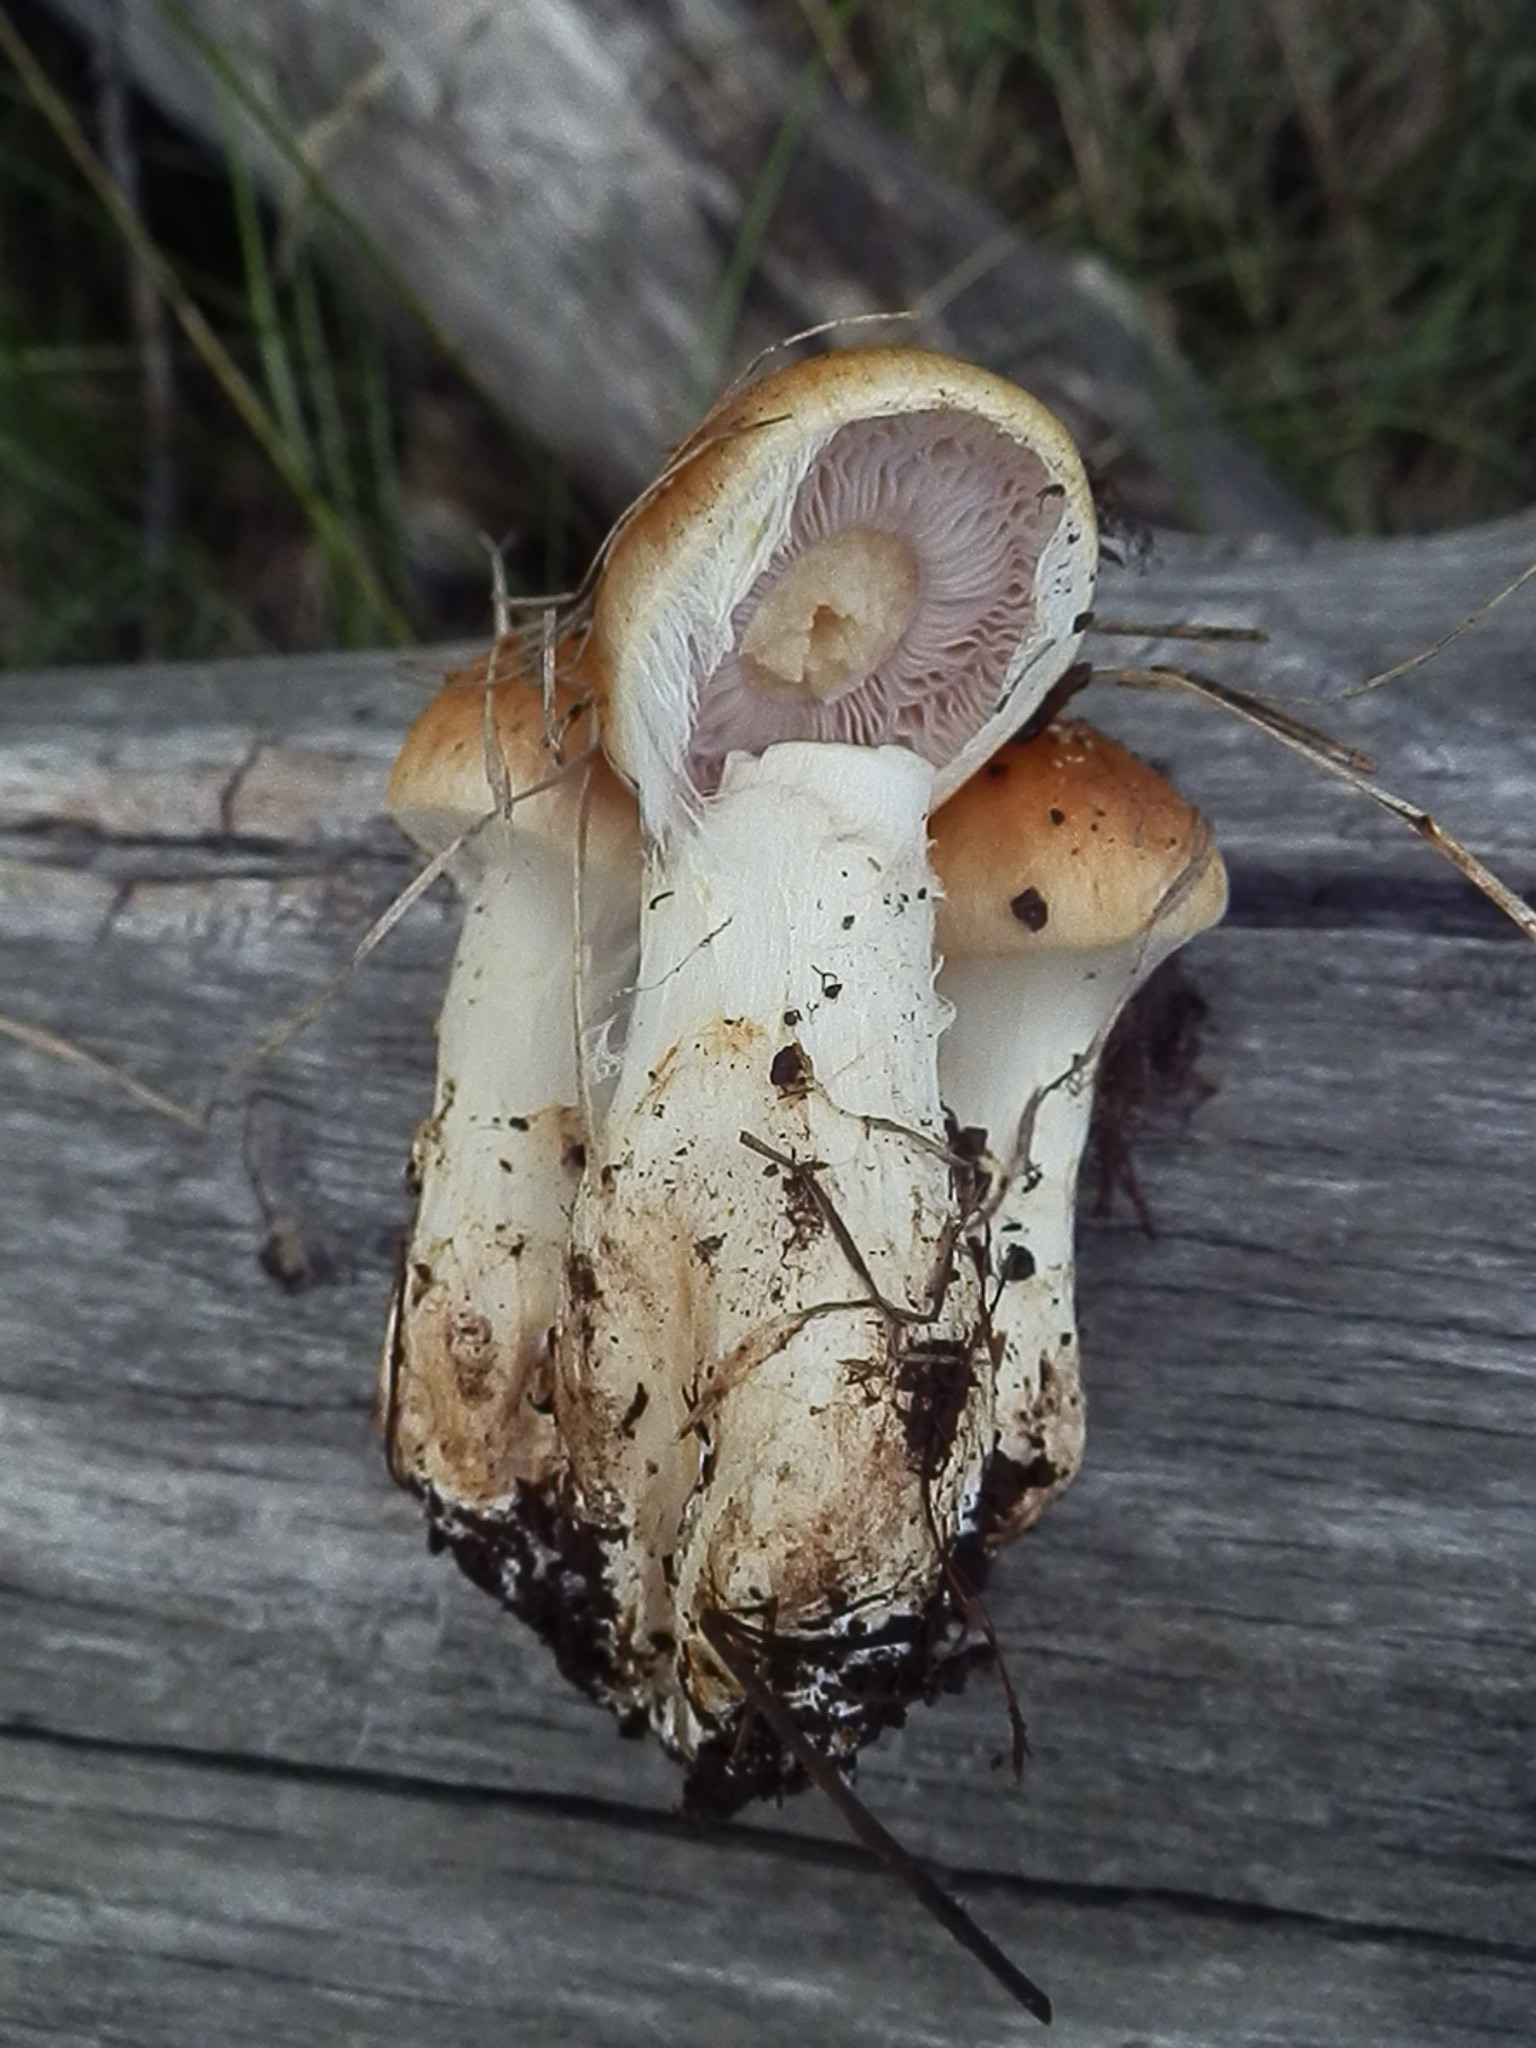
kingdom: Fungi
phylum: Basidiomycota
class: Agaricomycetes
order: Agaricales
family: Cortinariaceae
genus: Phlegmacium
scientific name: Phlegmacium variosimile
